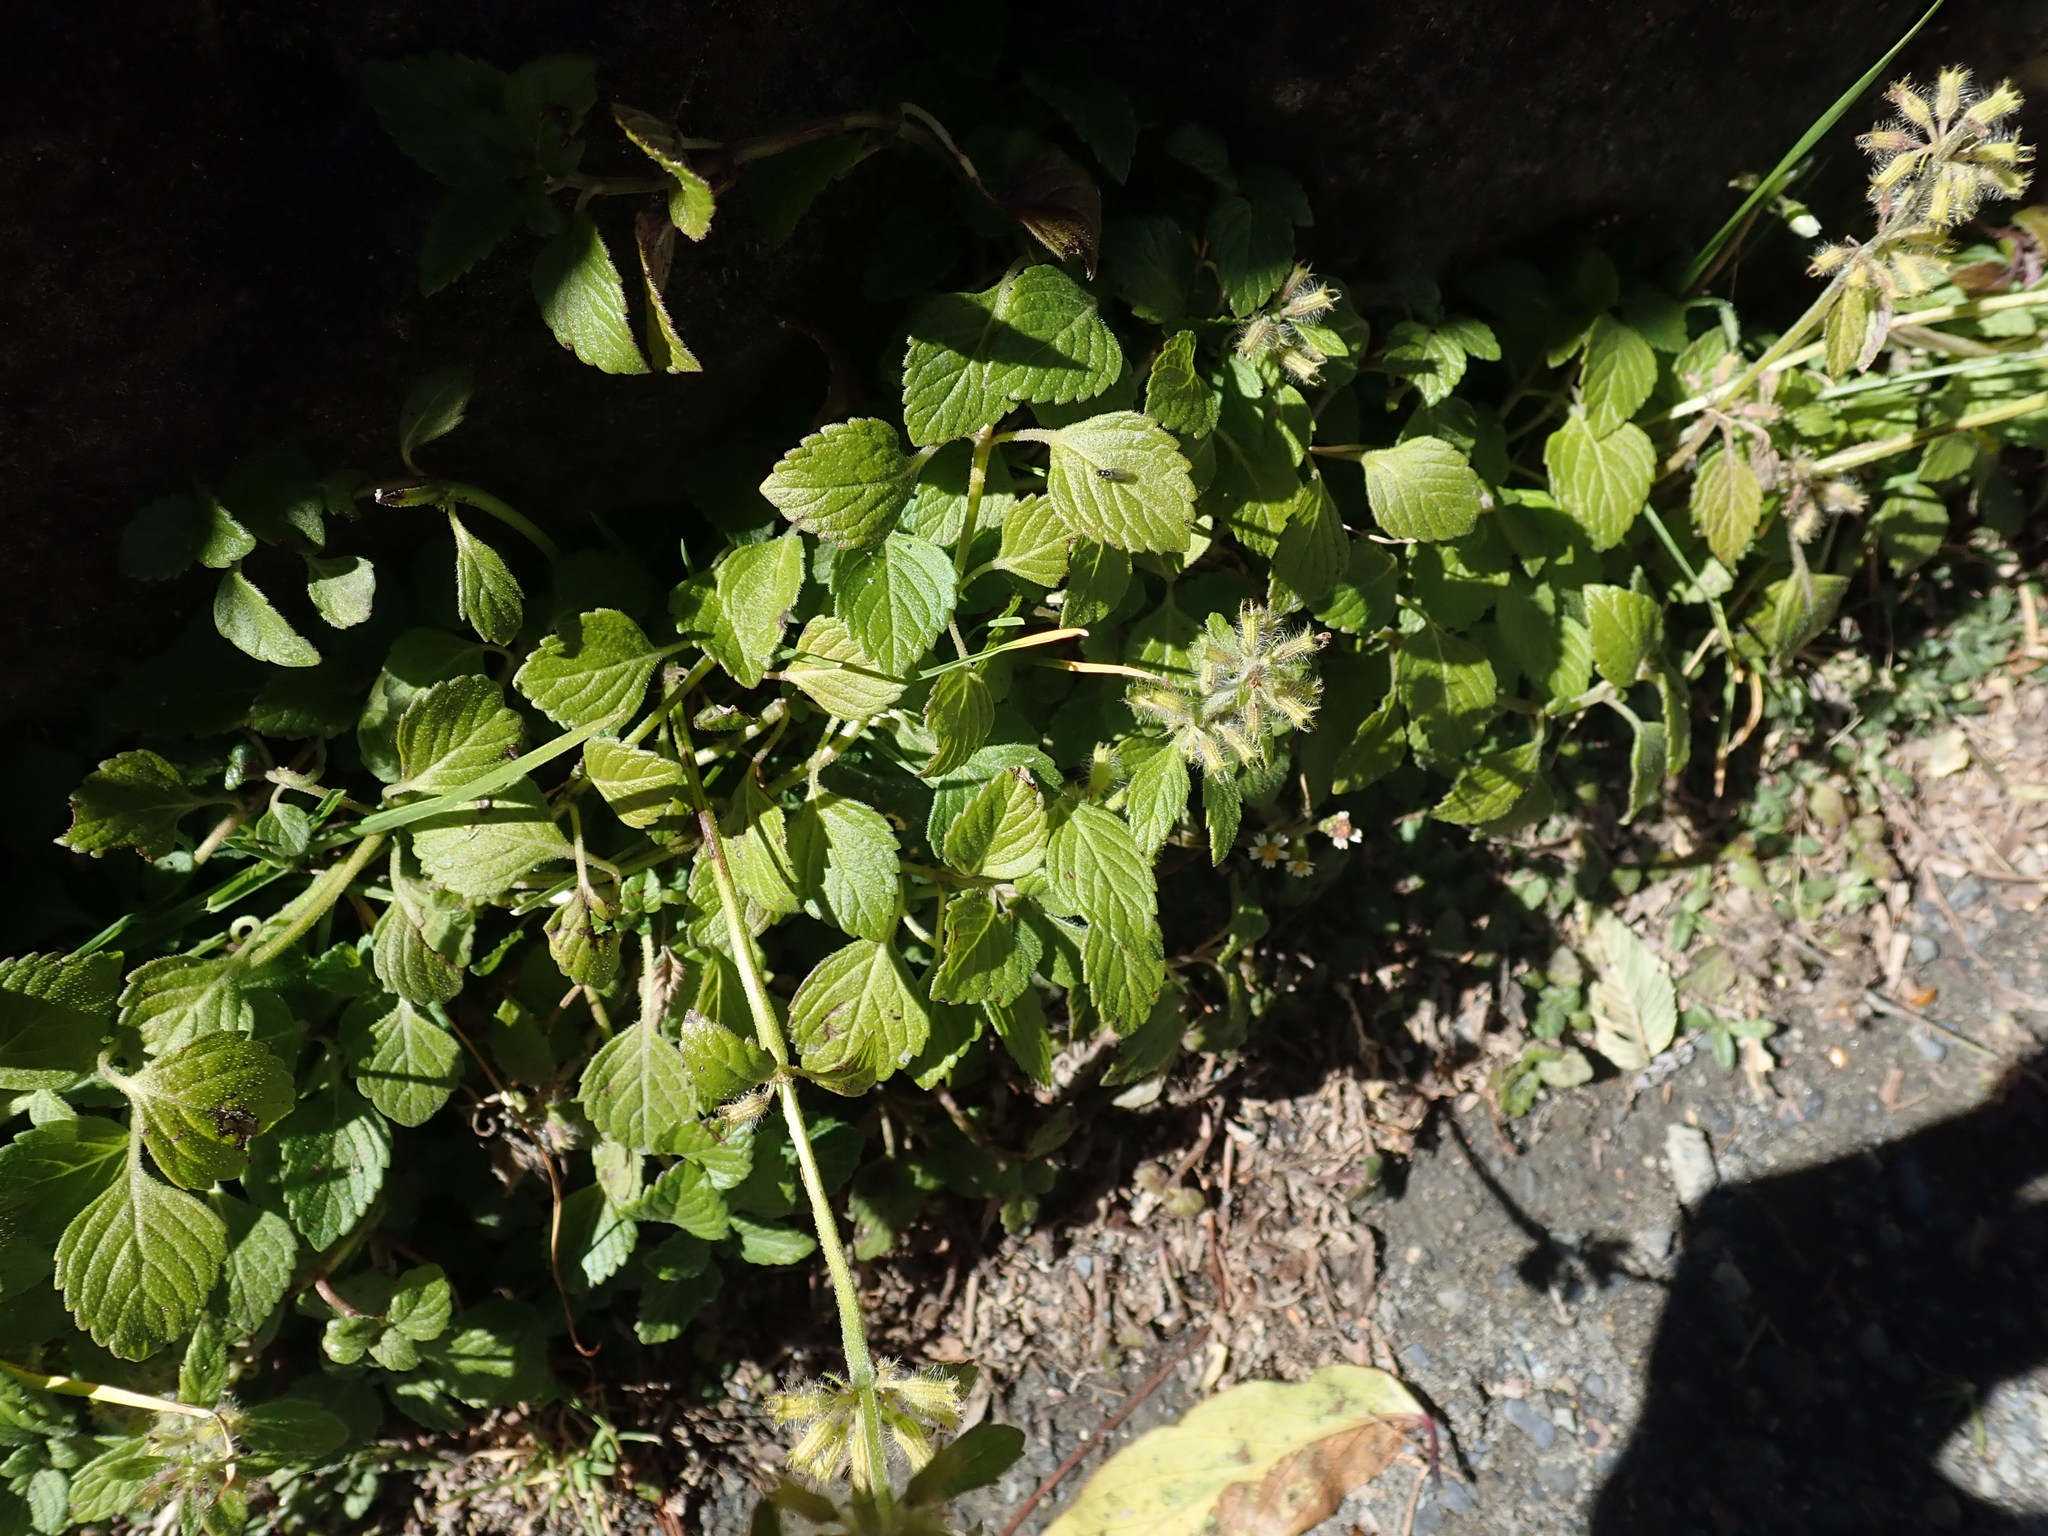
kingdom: Plantae
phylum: Tracheophyta
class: Magnoliopsida
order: Lamiales
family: Lamiaceae
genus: Clinopodium
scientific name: Clinopodium chinense
